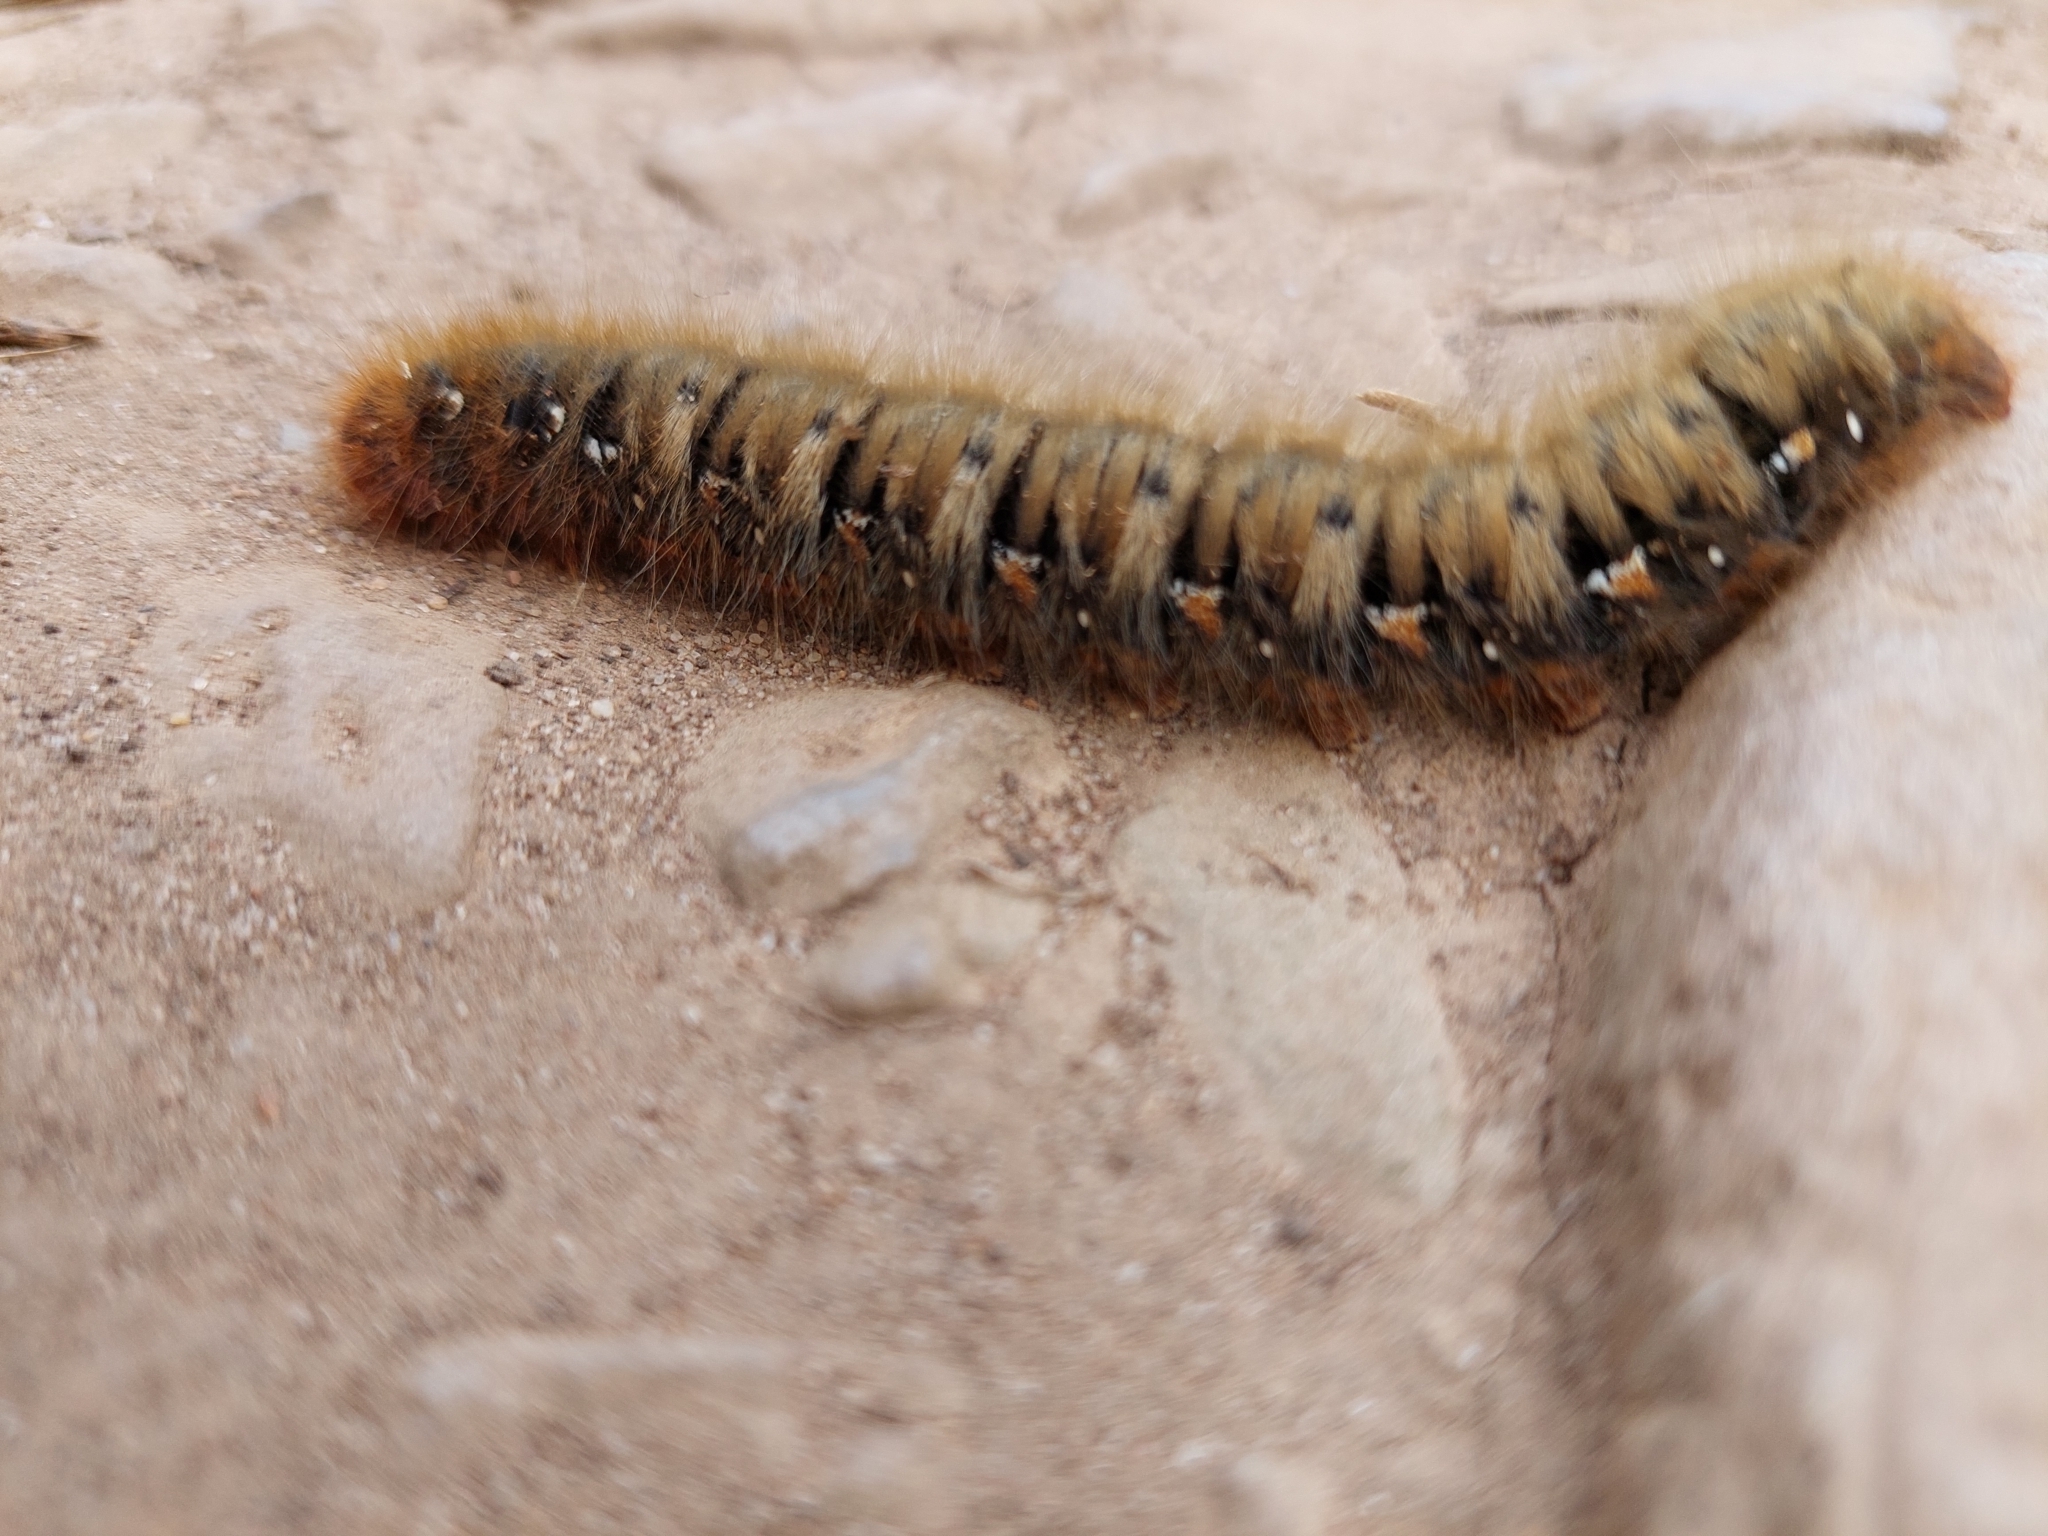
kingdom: Animalia
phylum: Arthropoda
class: Insecta
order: Lepidoptera
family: Lasiocampidae
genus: Lasiocampa
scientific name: Lasiocampa quercus
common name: Oak eggar
